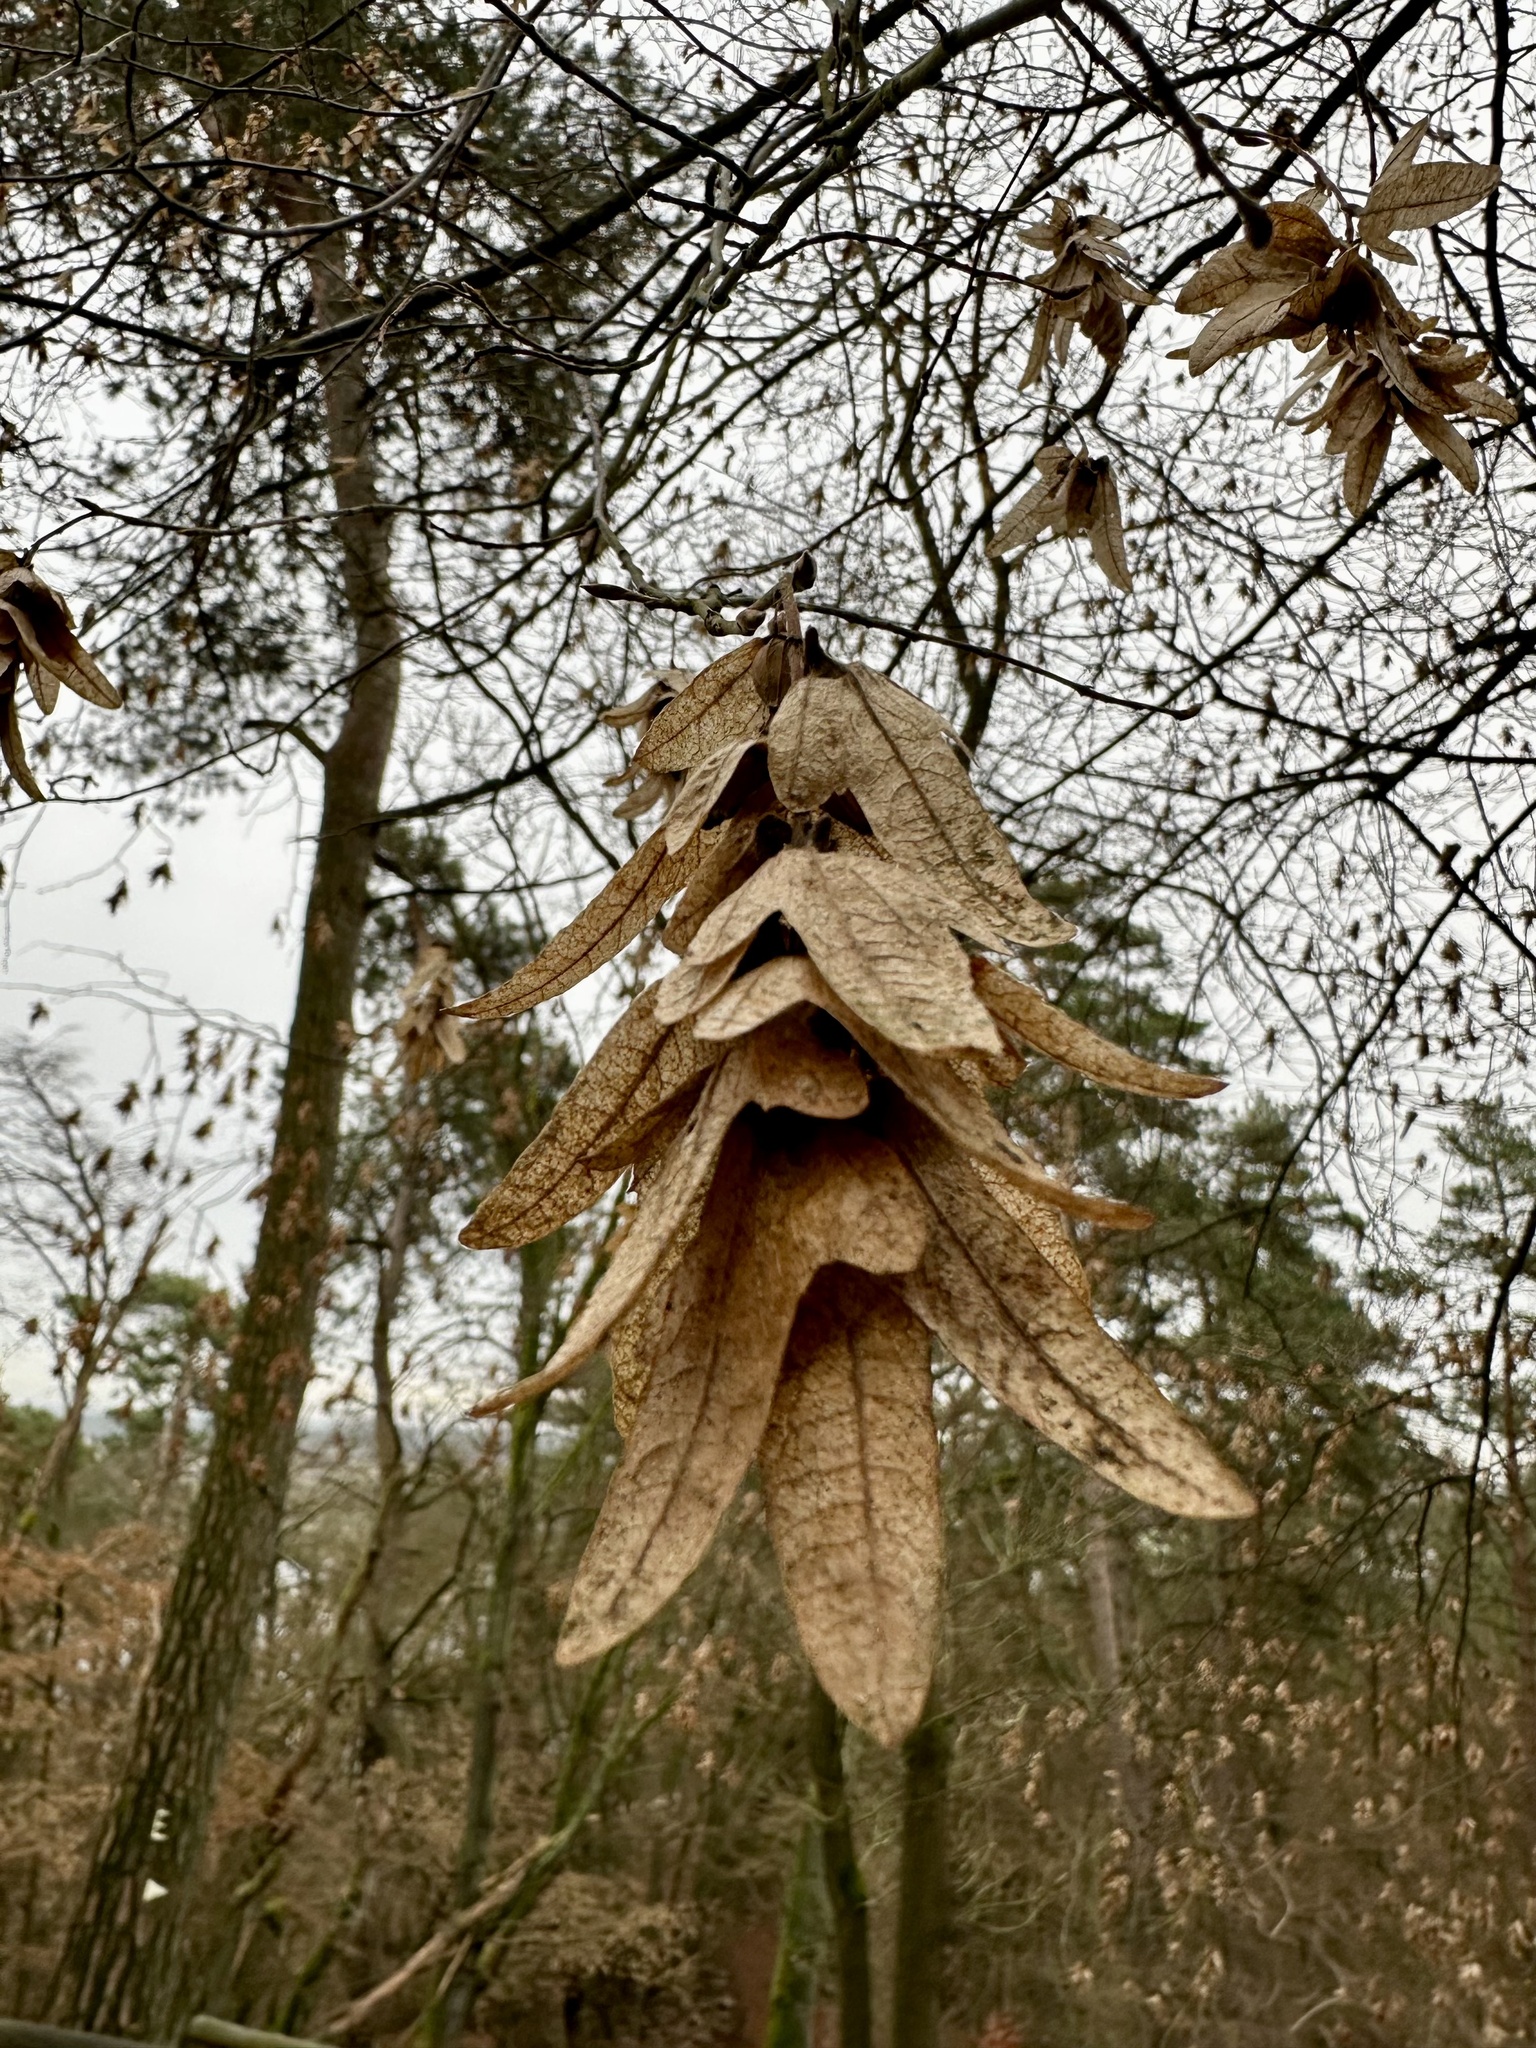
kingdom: Plantae
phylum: Tracheophyta
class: Magnoliopsida
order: Fagales
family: Betulaceae
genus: Carpinus
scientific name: Carpinus betulus
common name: Hornbeam
